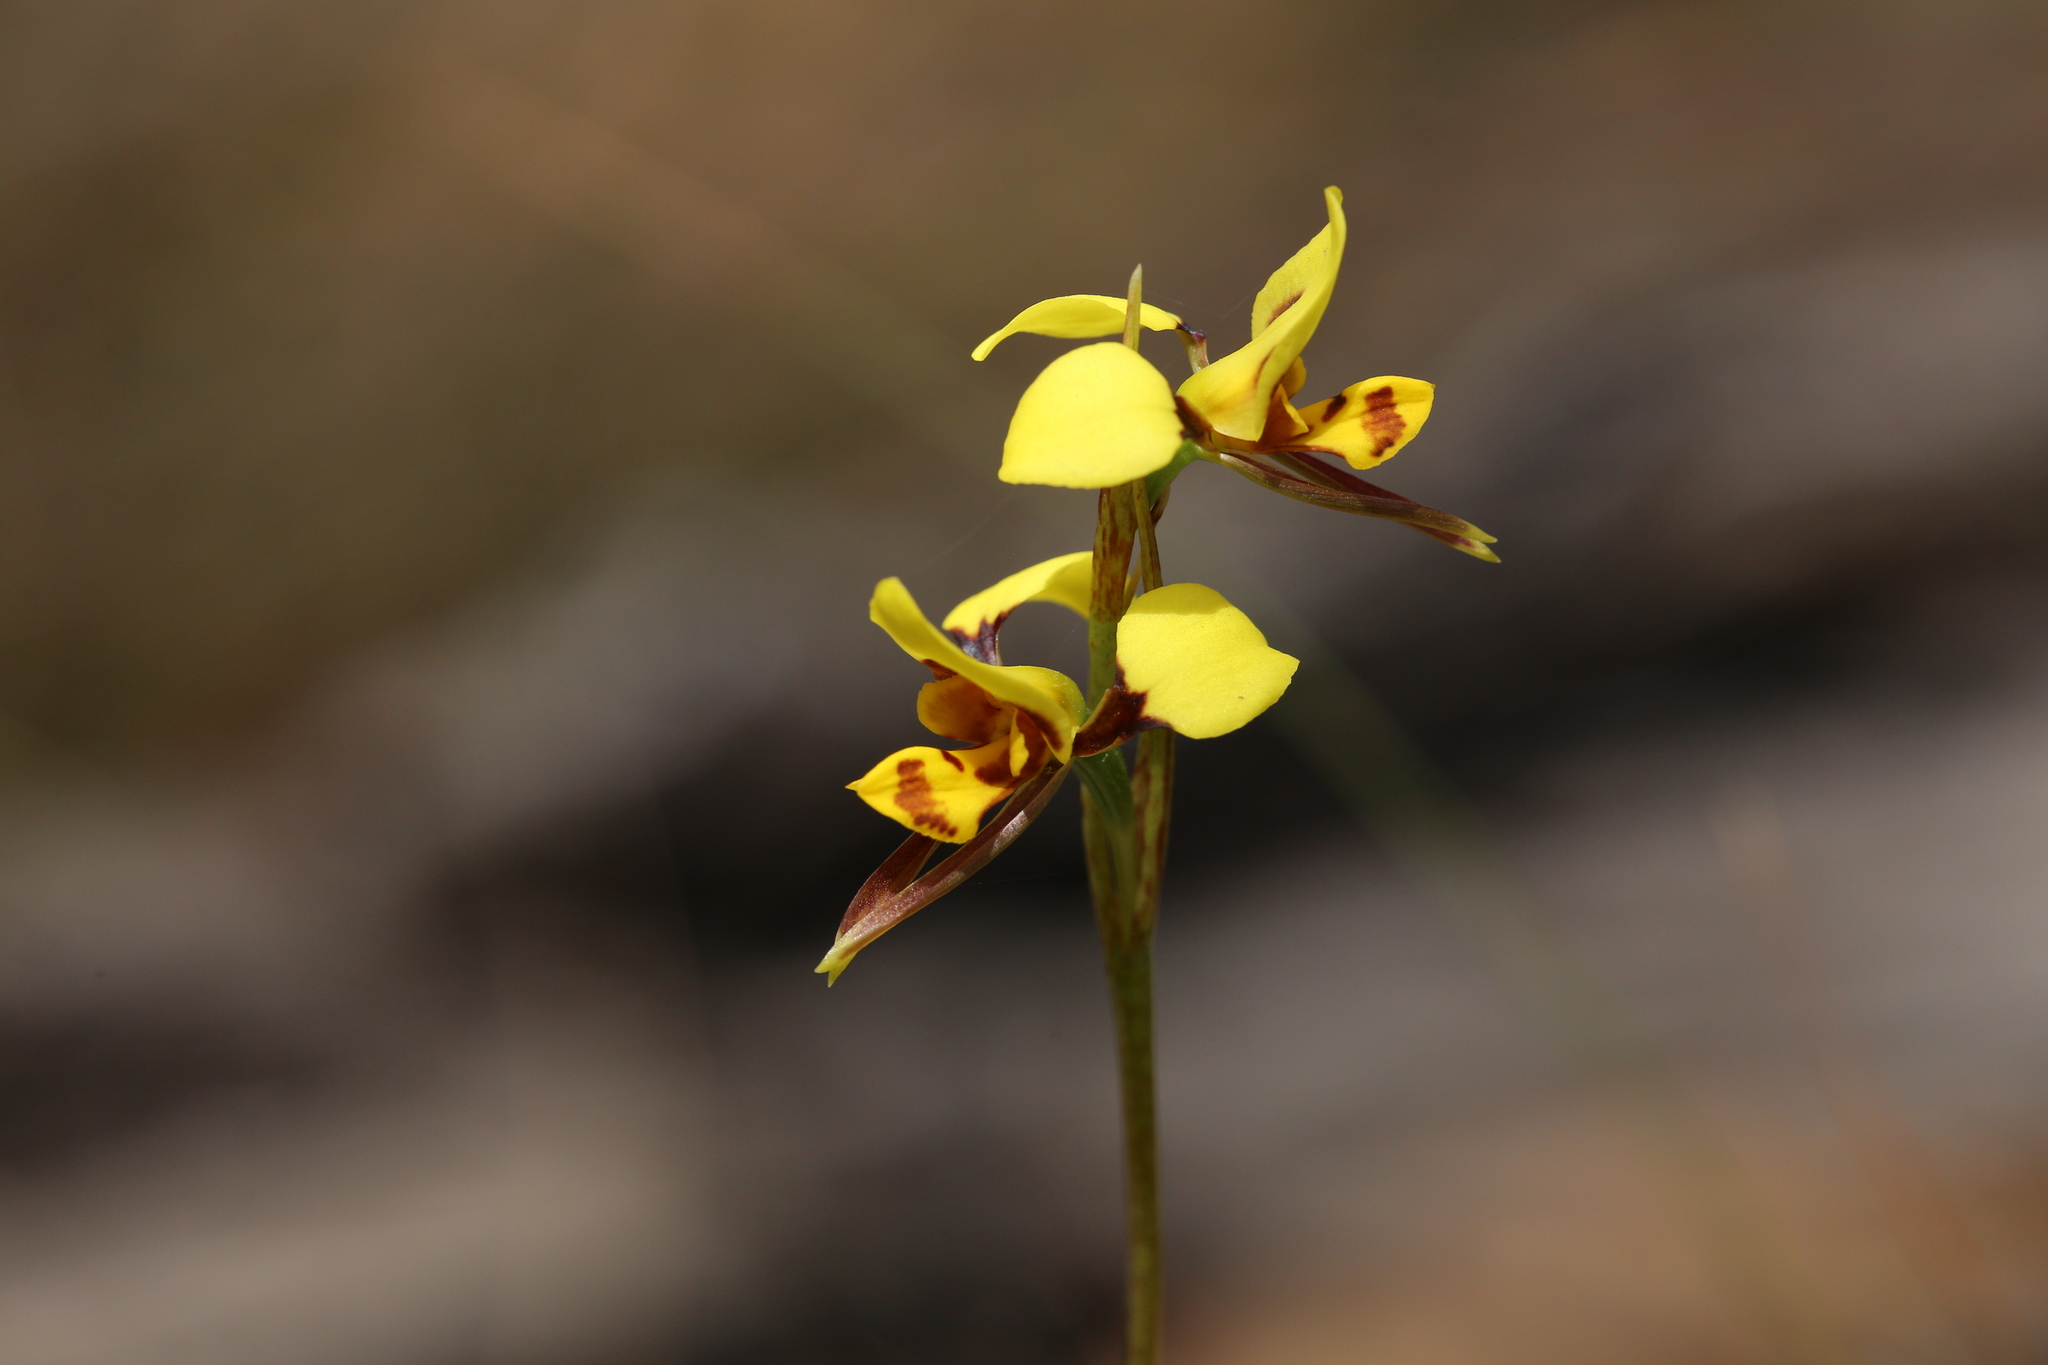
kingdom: Plantae
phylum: Tracheophyta
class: Liliopsida
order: Asparagales
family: Orchidaceae
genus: Diuris
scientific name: Diuris sulphurea
